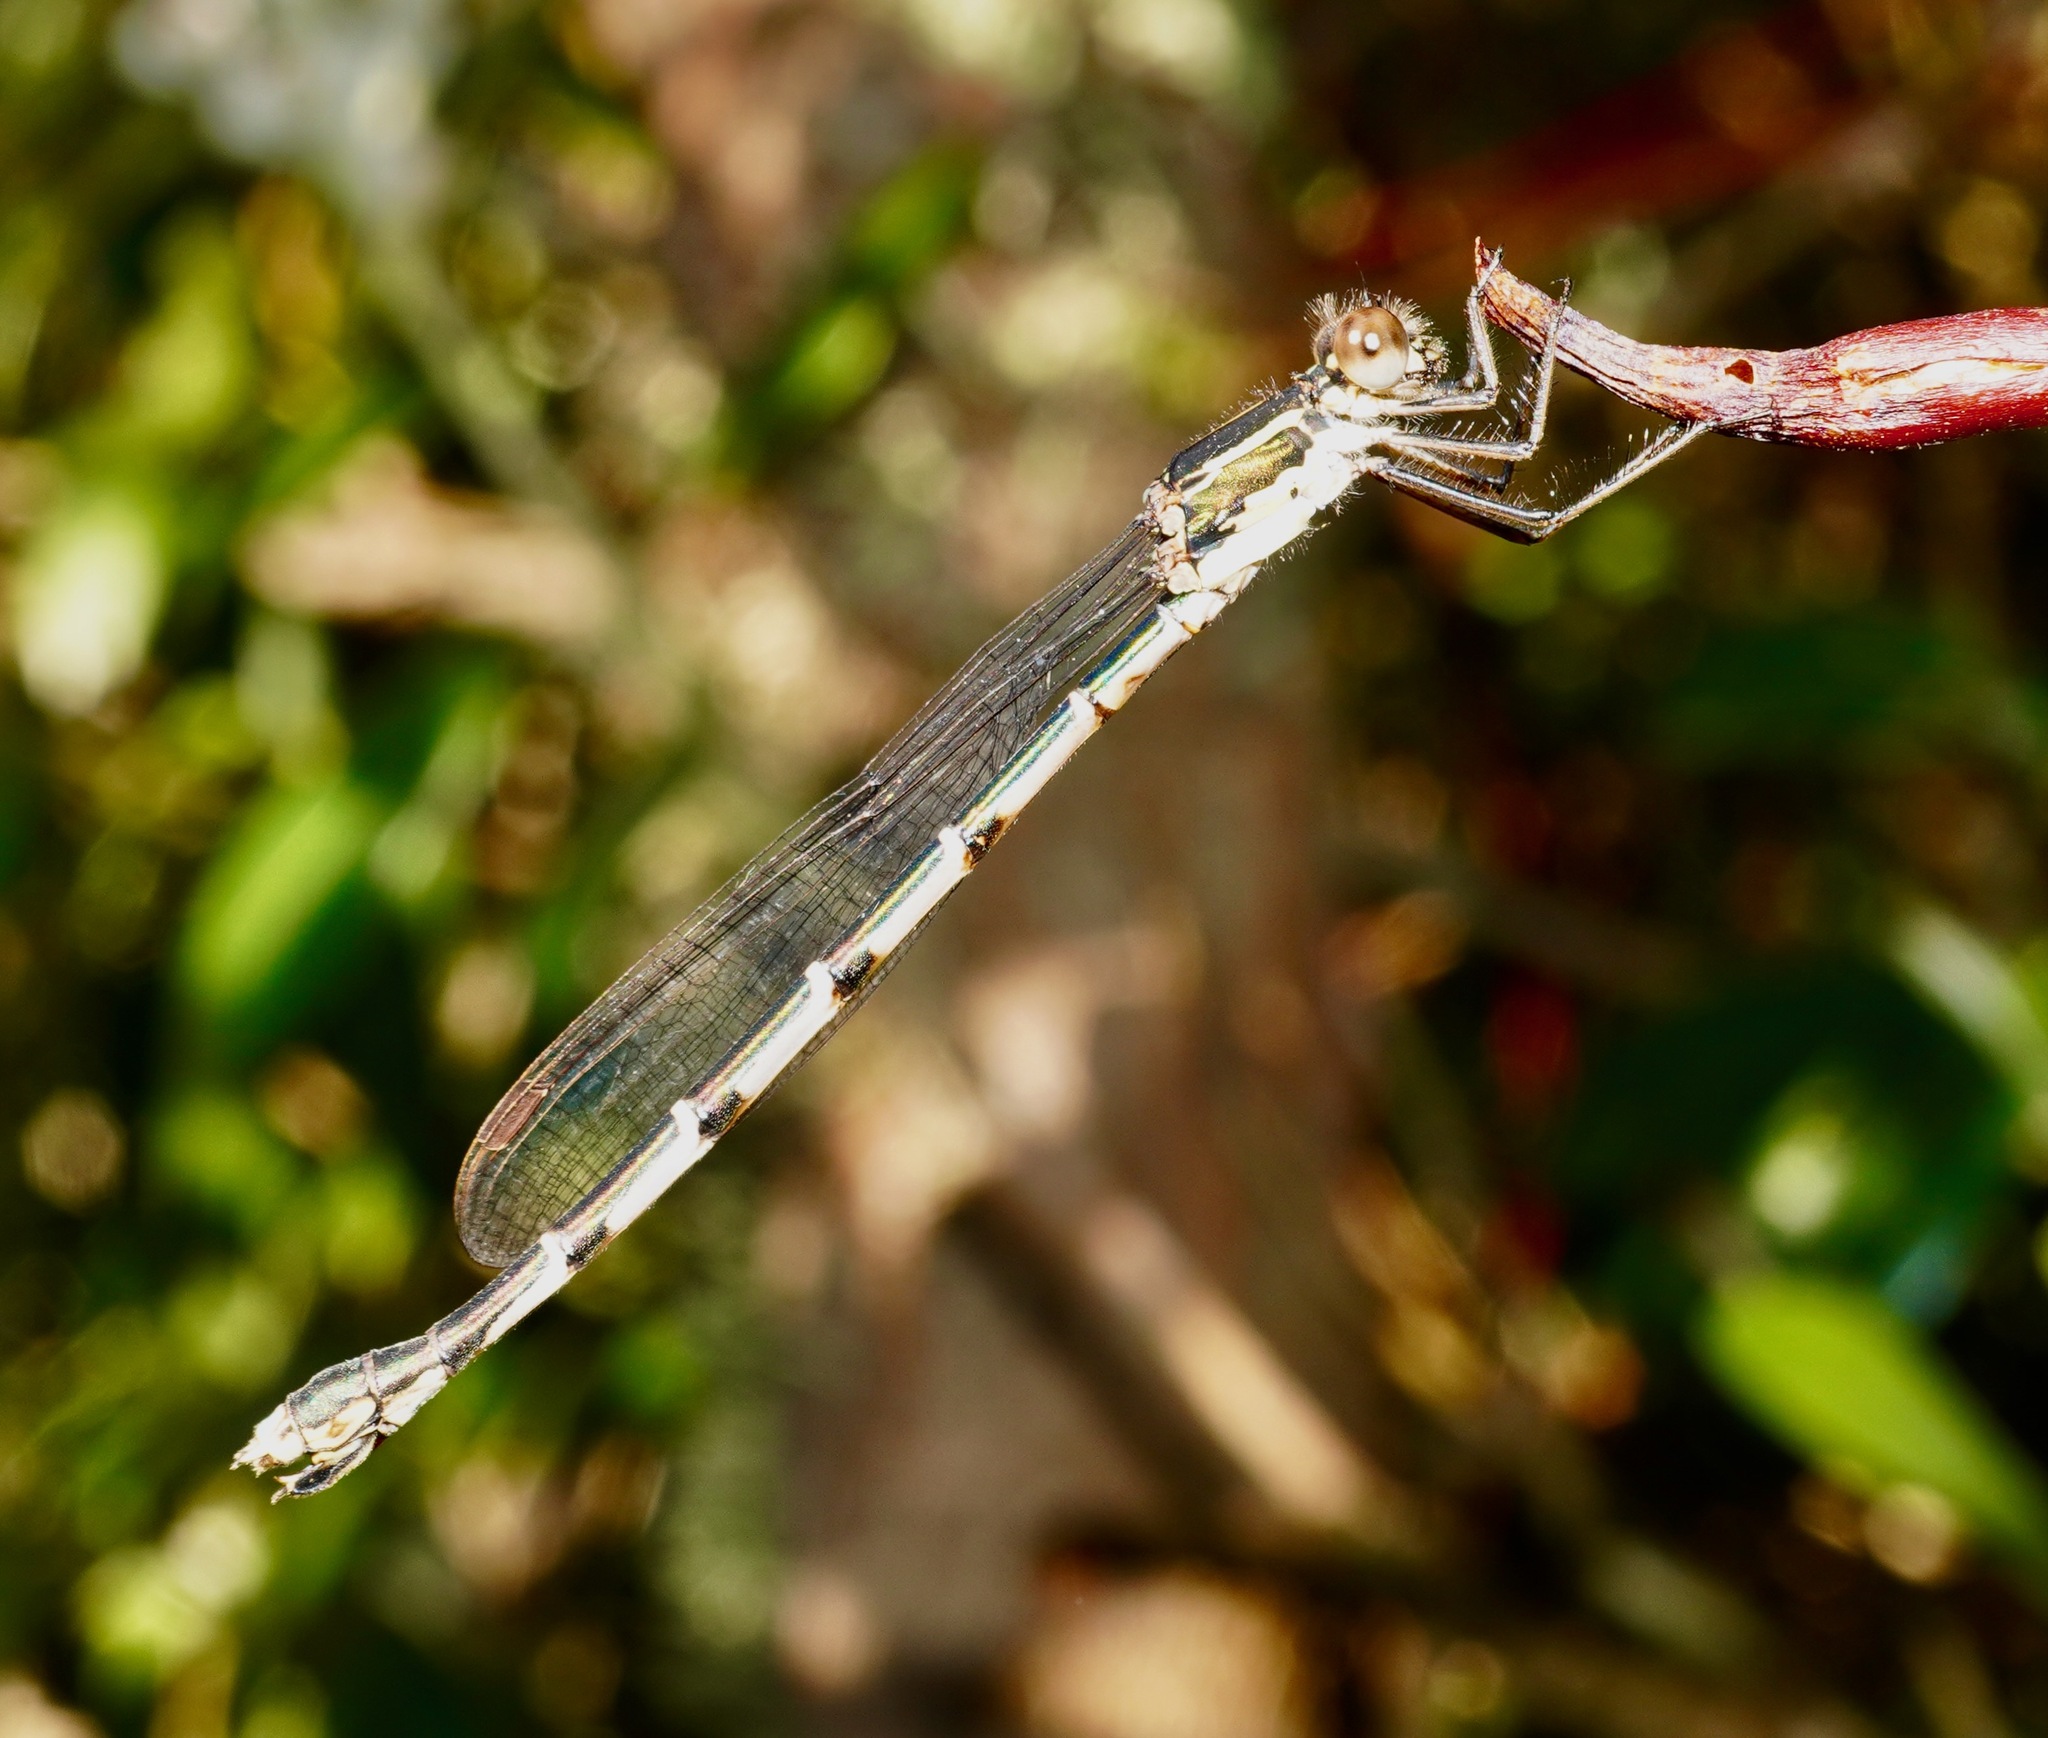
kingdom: Animalia
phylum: Arthropoda
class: Insecta
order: Odonata
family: Lestidae
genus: Austrolestes
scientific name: Austrolestes colensonis
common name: Blue damselfly
